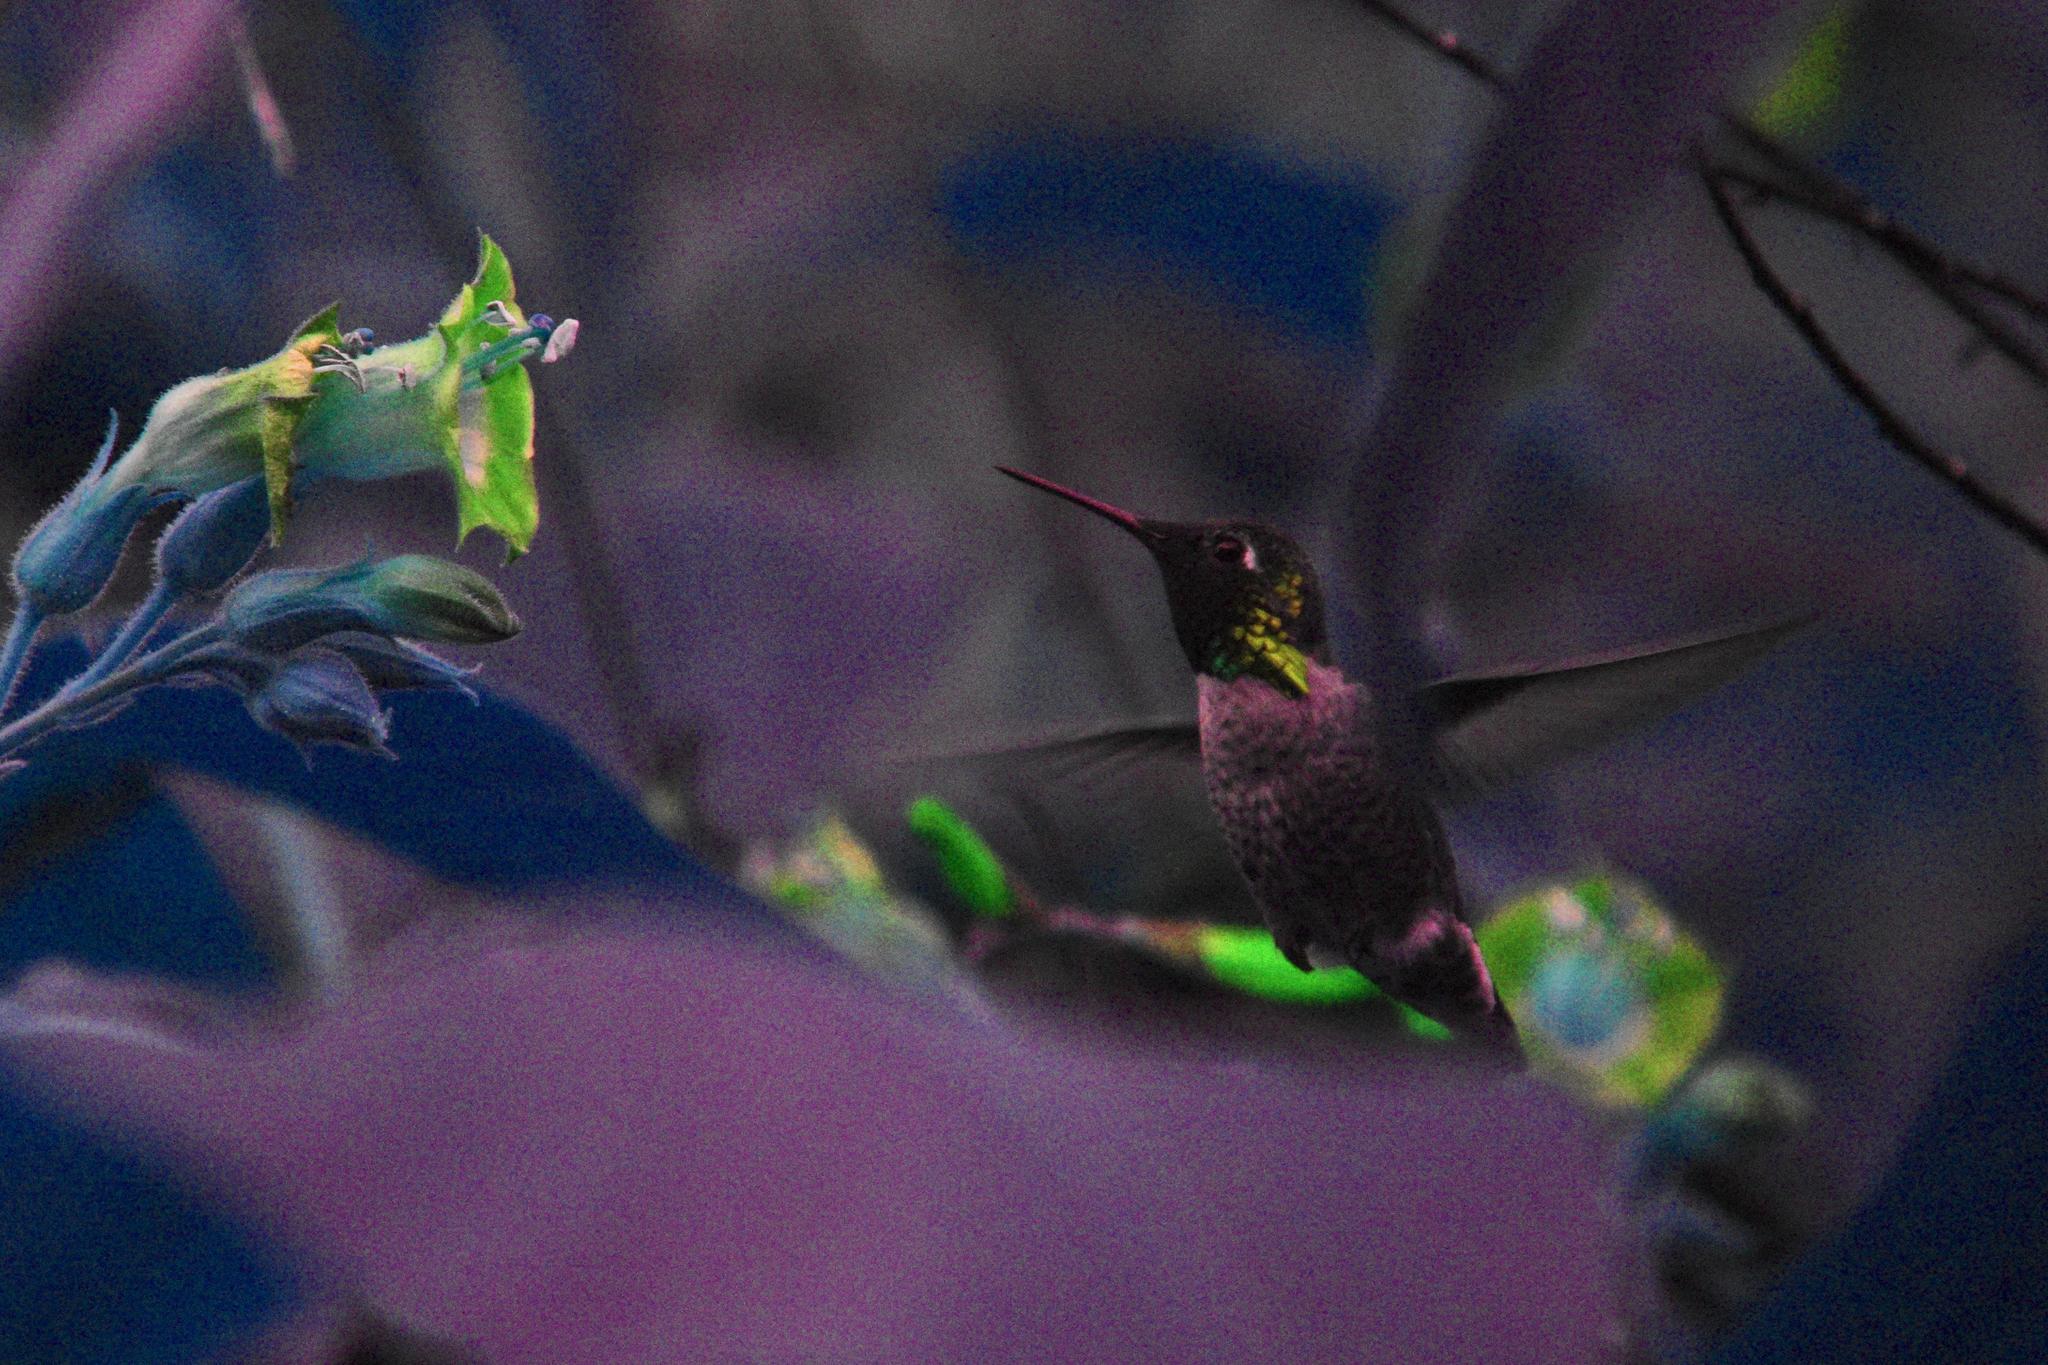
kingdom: Animalia
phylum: Chordata
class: Aves
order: Apodiformes
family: Trochilidae
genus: Calypte
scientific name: Calypte anna
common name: Anna's hummingbird
